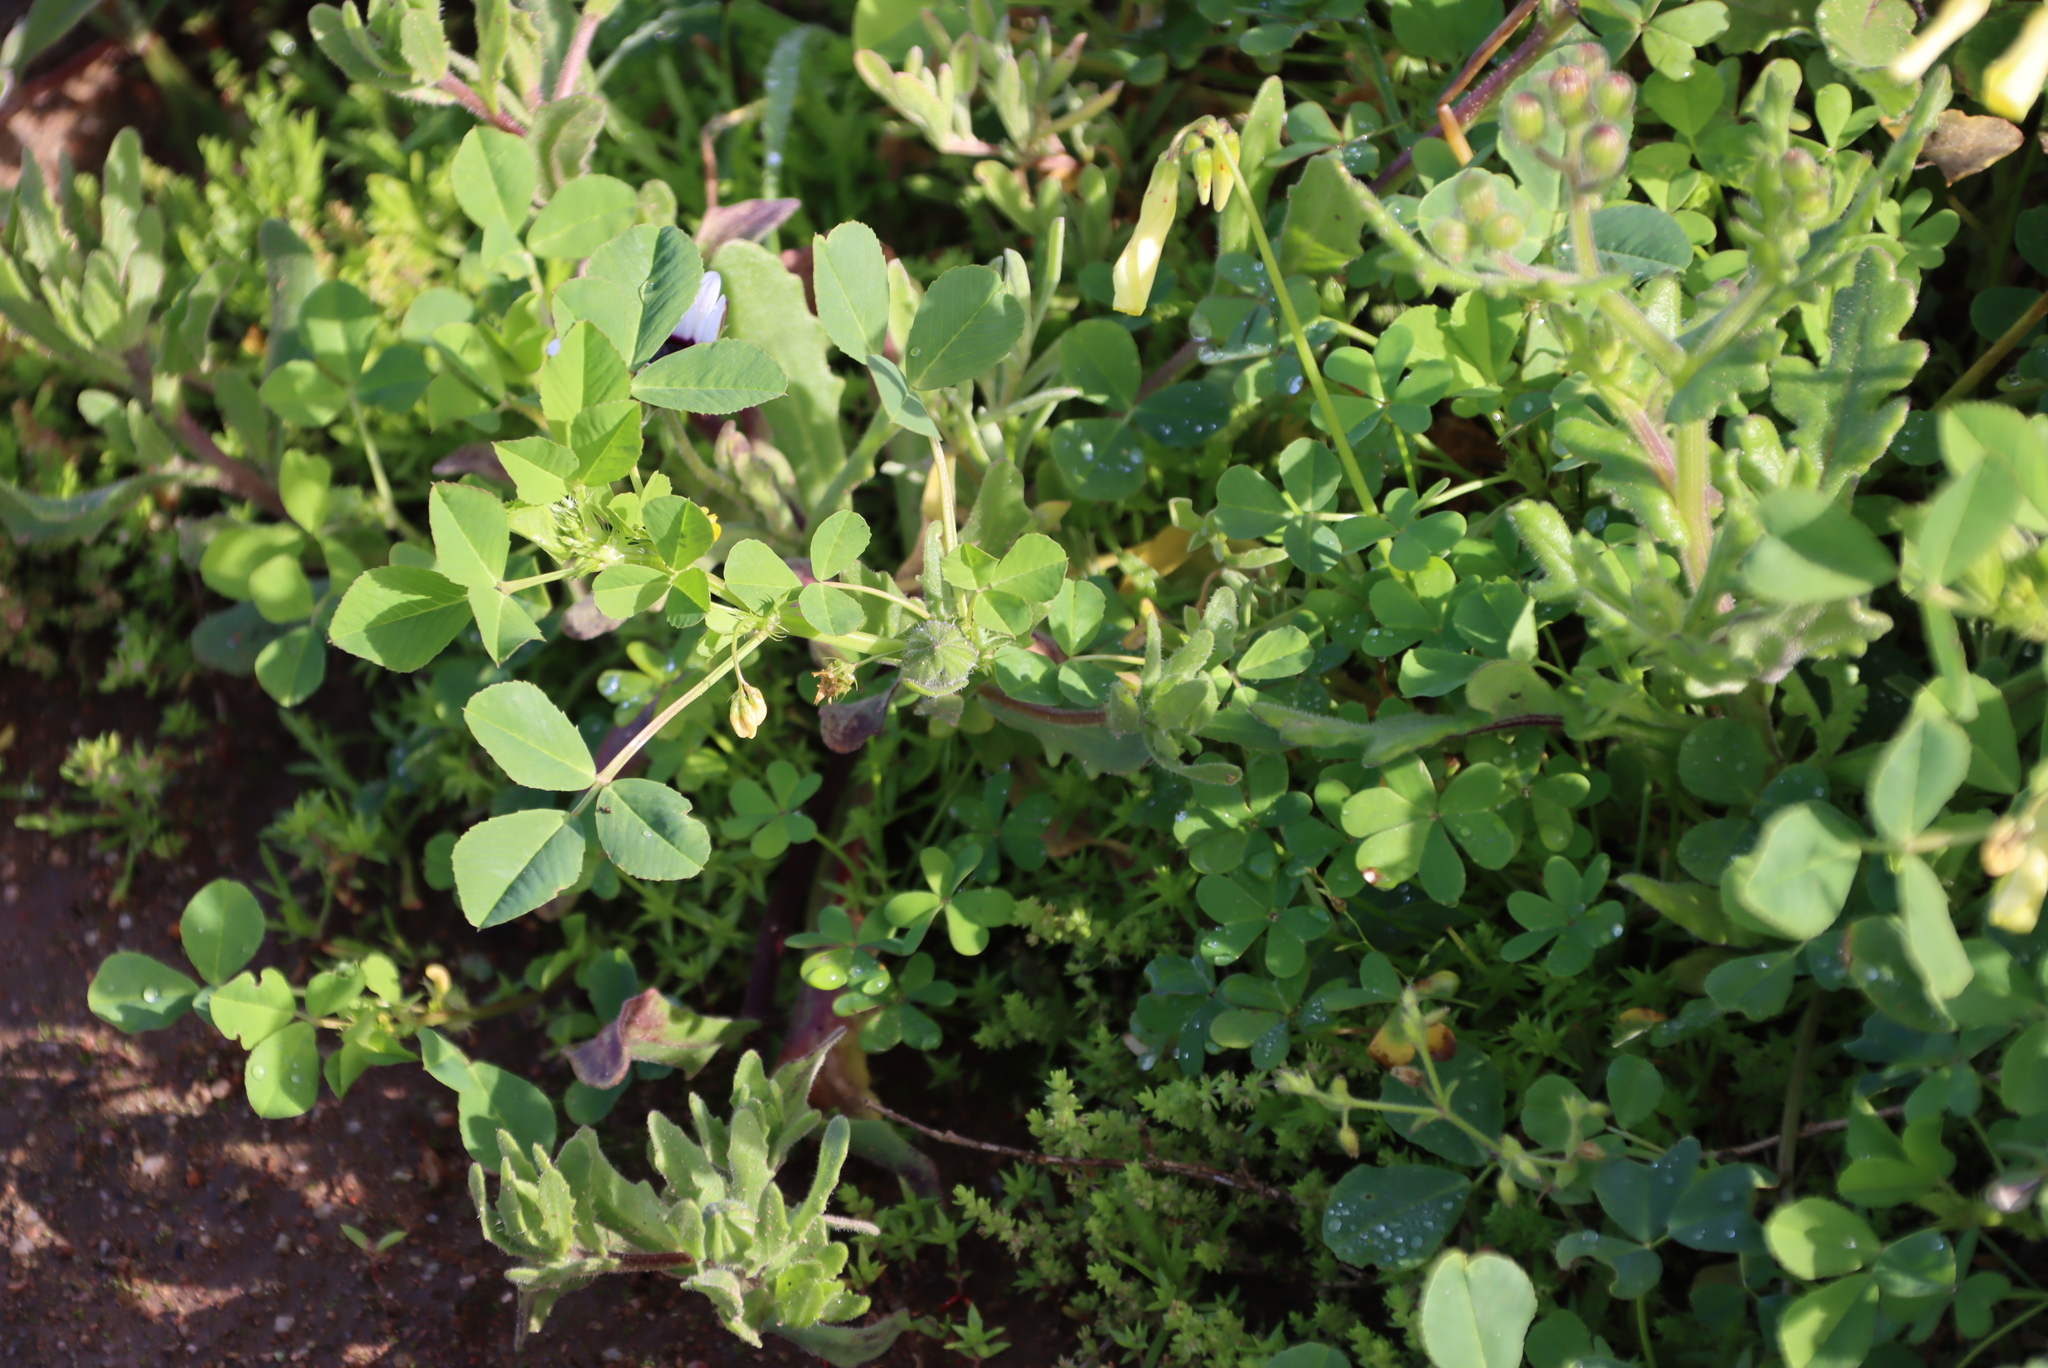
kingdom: Plantae
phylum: Tracheophyta
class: Magnoliopsida
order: Fabales
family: Fabaceae
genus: Medicago
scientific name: Medicago polymorpha
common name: Burclover
